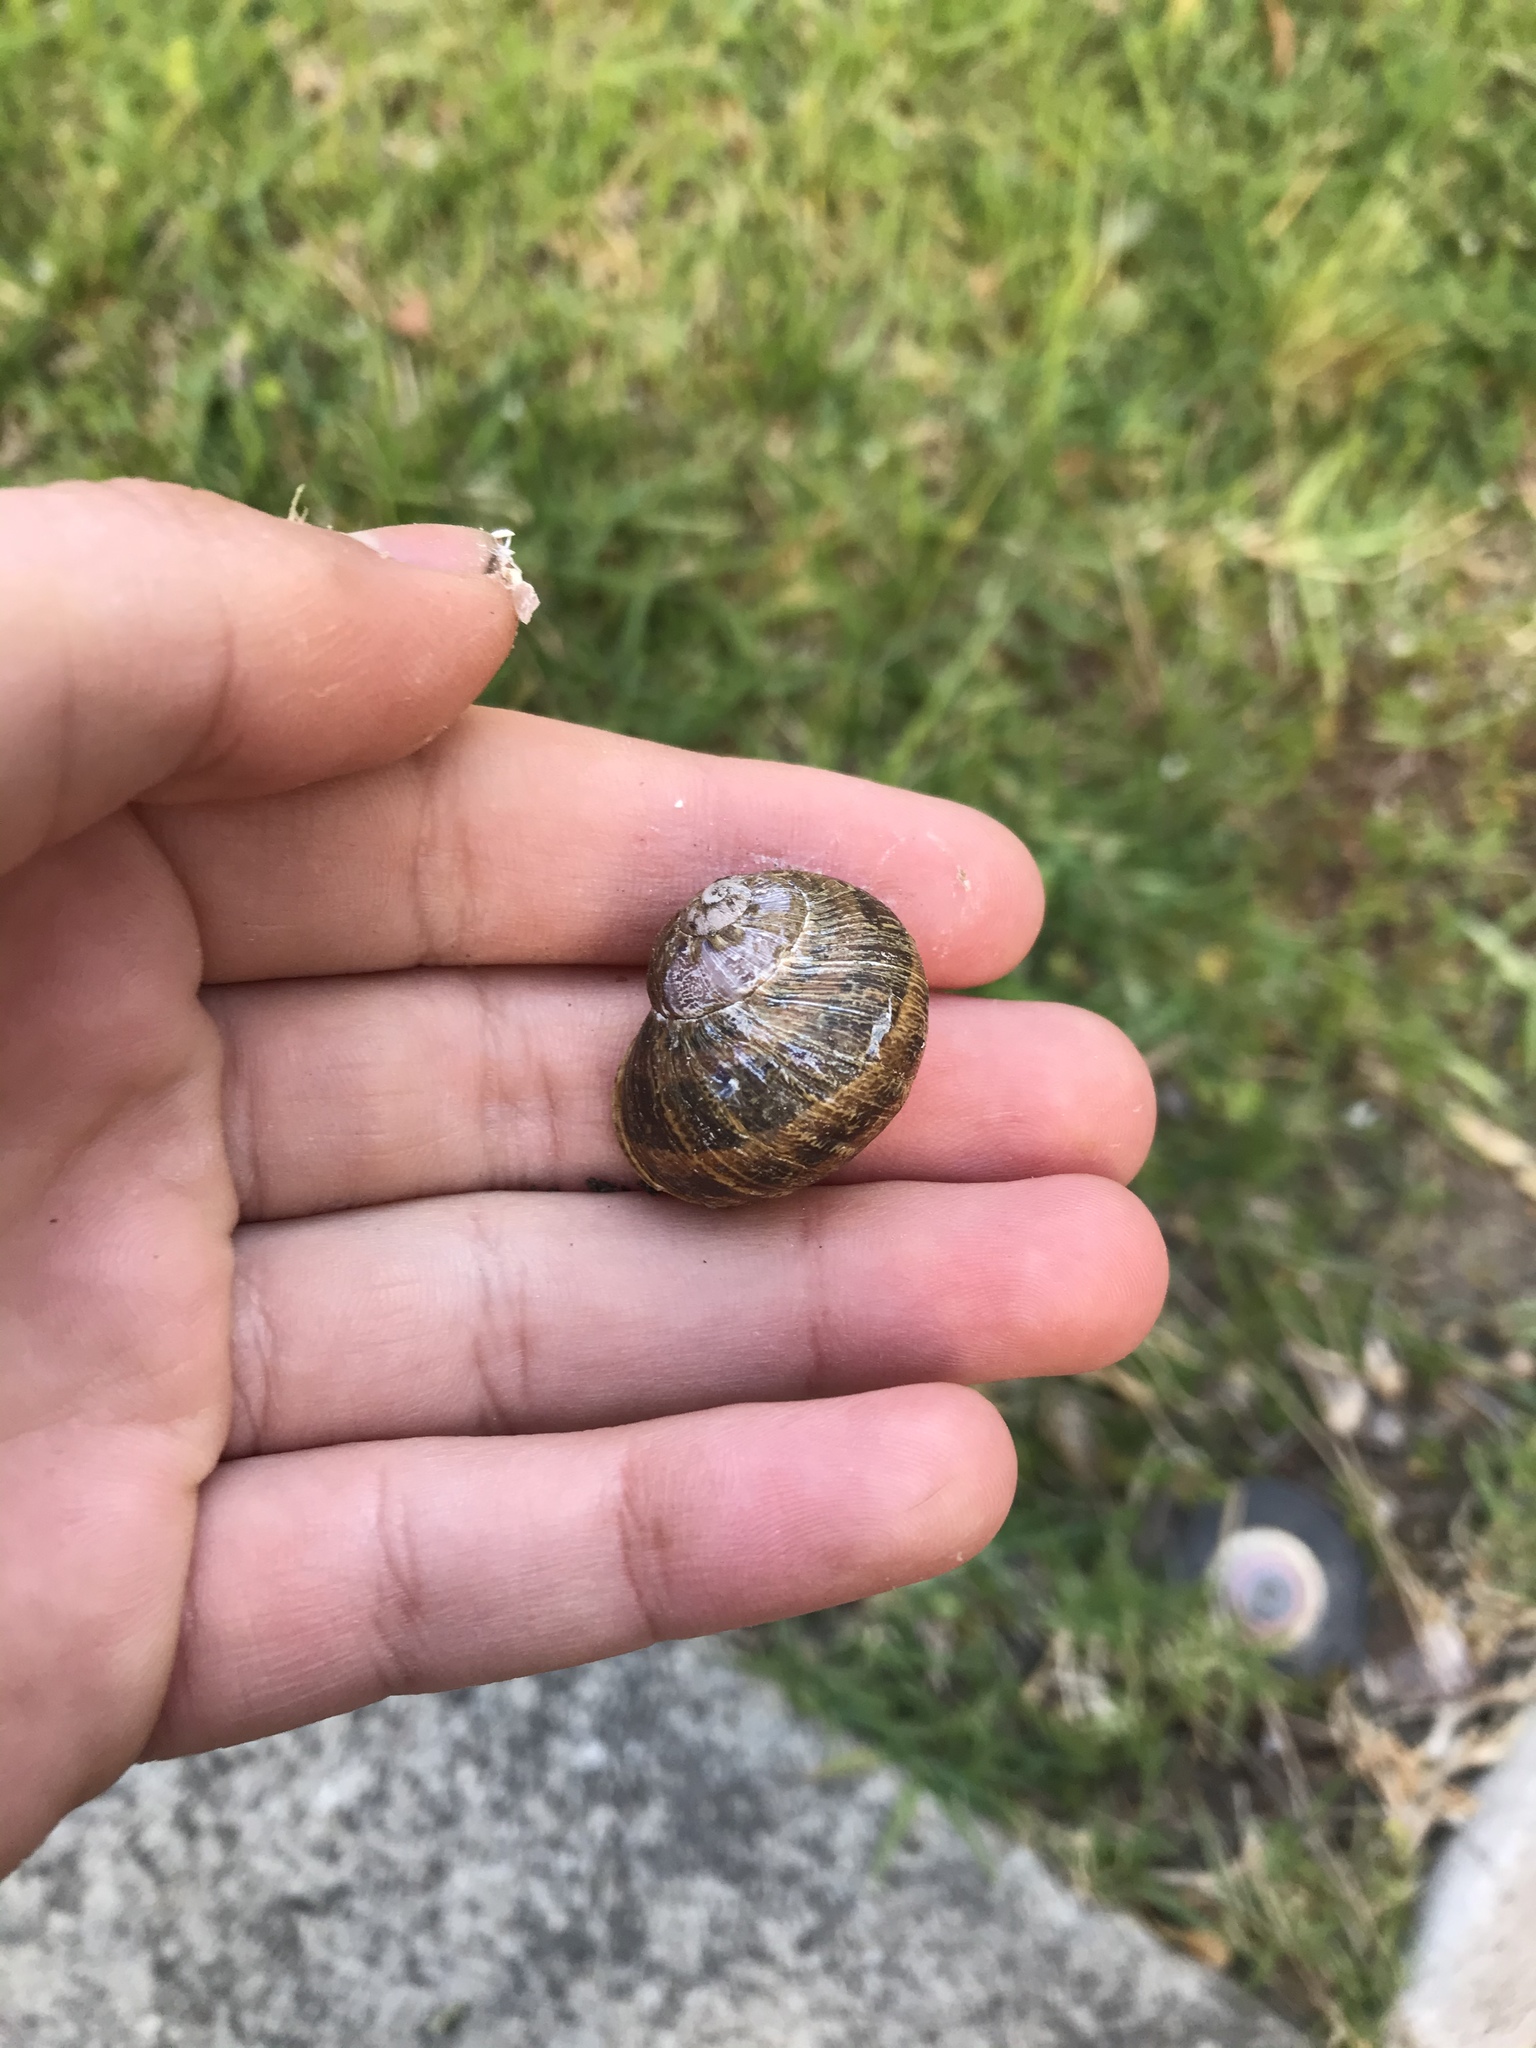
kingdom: Animalia
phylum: Mollusca
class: Gastropoda
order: Stylommatophora
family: Helicidae
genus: Cornu
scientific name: Cornu aspersum
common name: Brown garden snail
